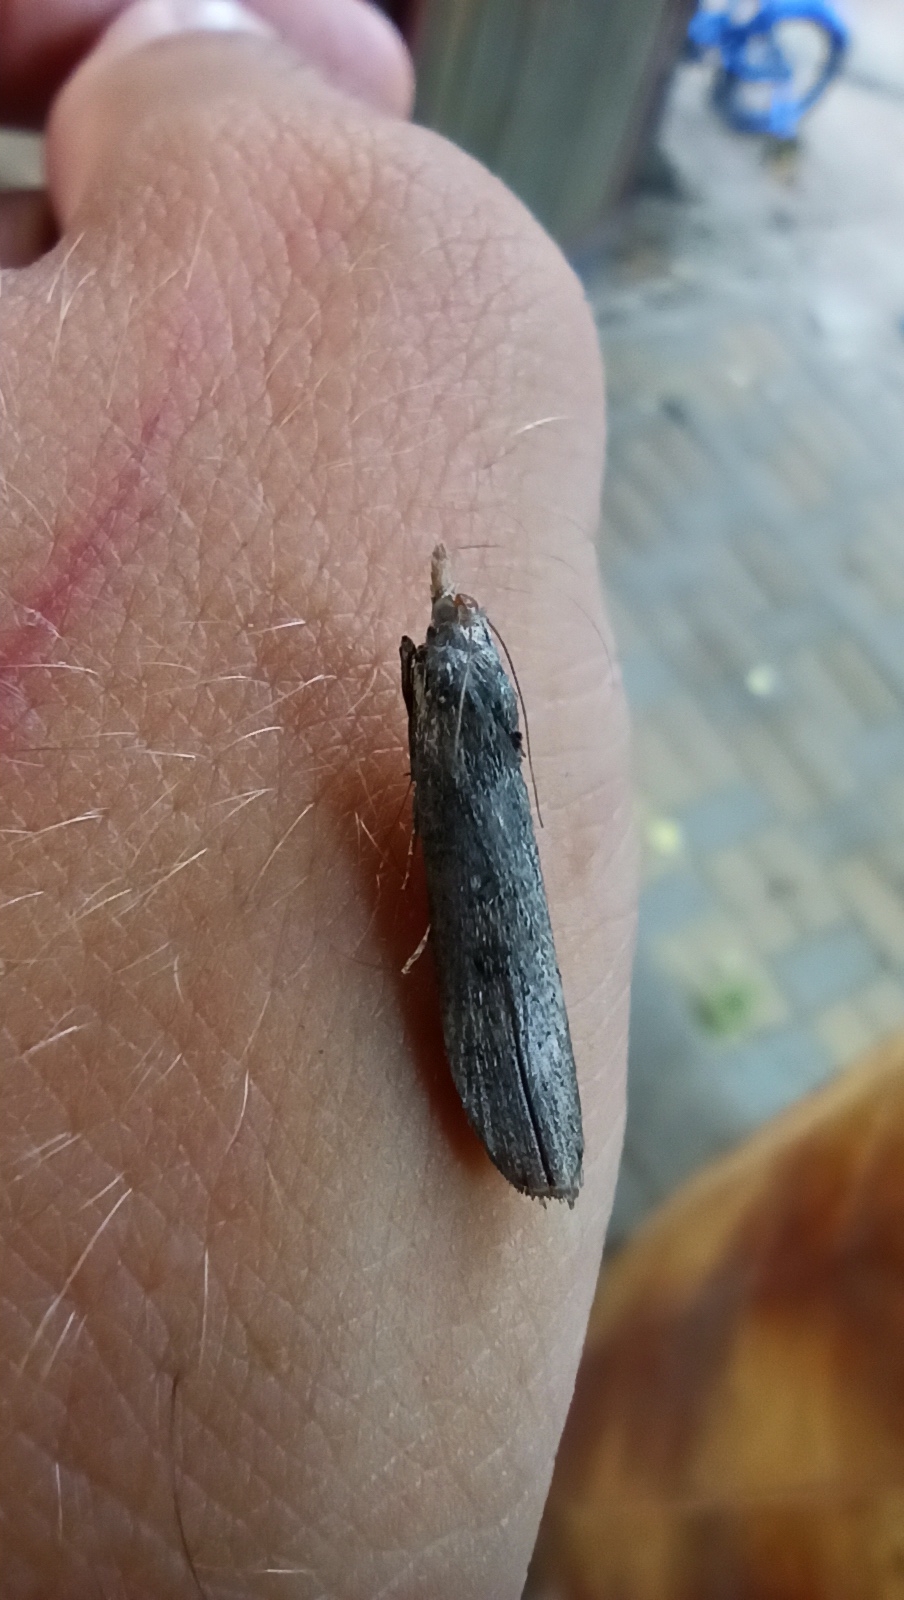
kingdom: Animalia
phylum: Arthropoda
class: Insecta
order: Lepidoptera
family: Pyralidae
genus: Lamoria
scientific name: Lamoria anella
